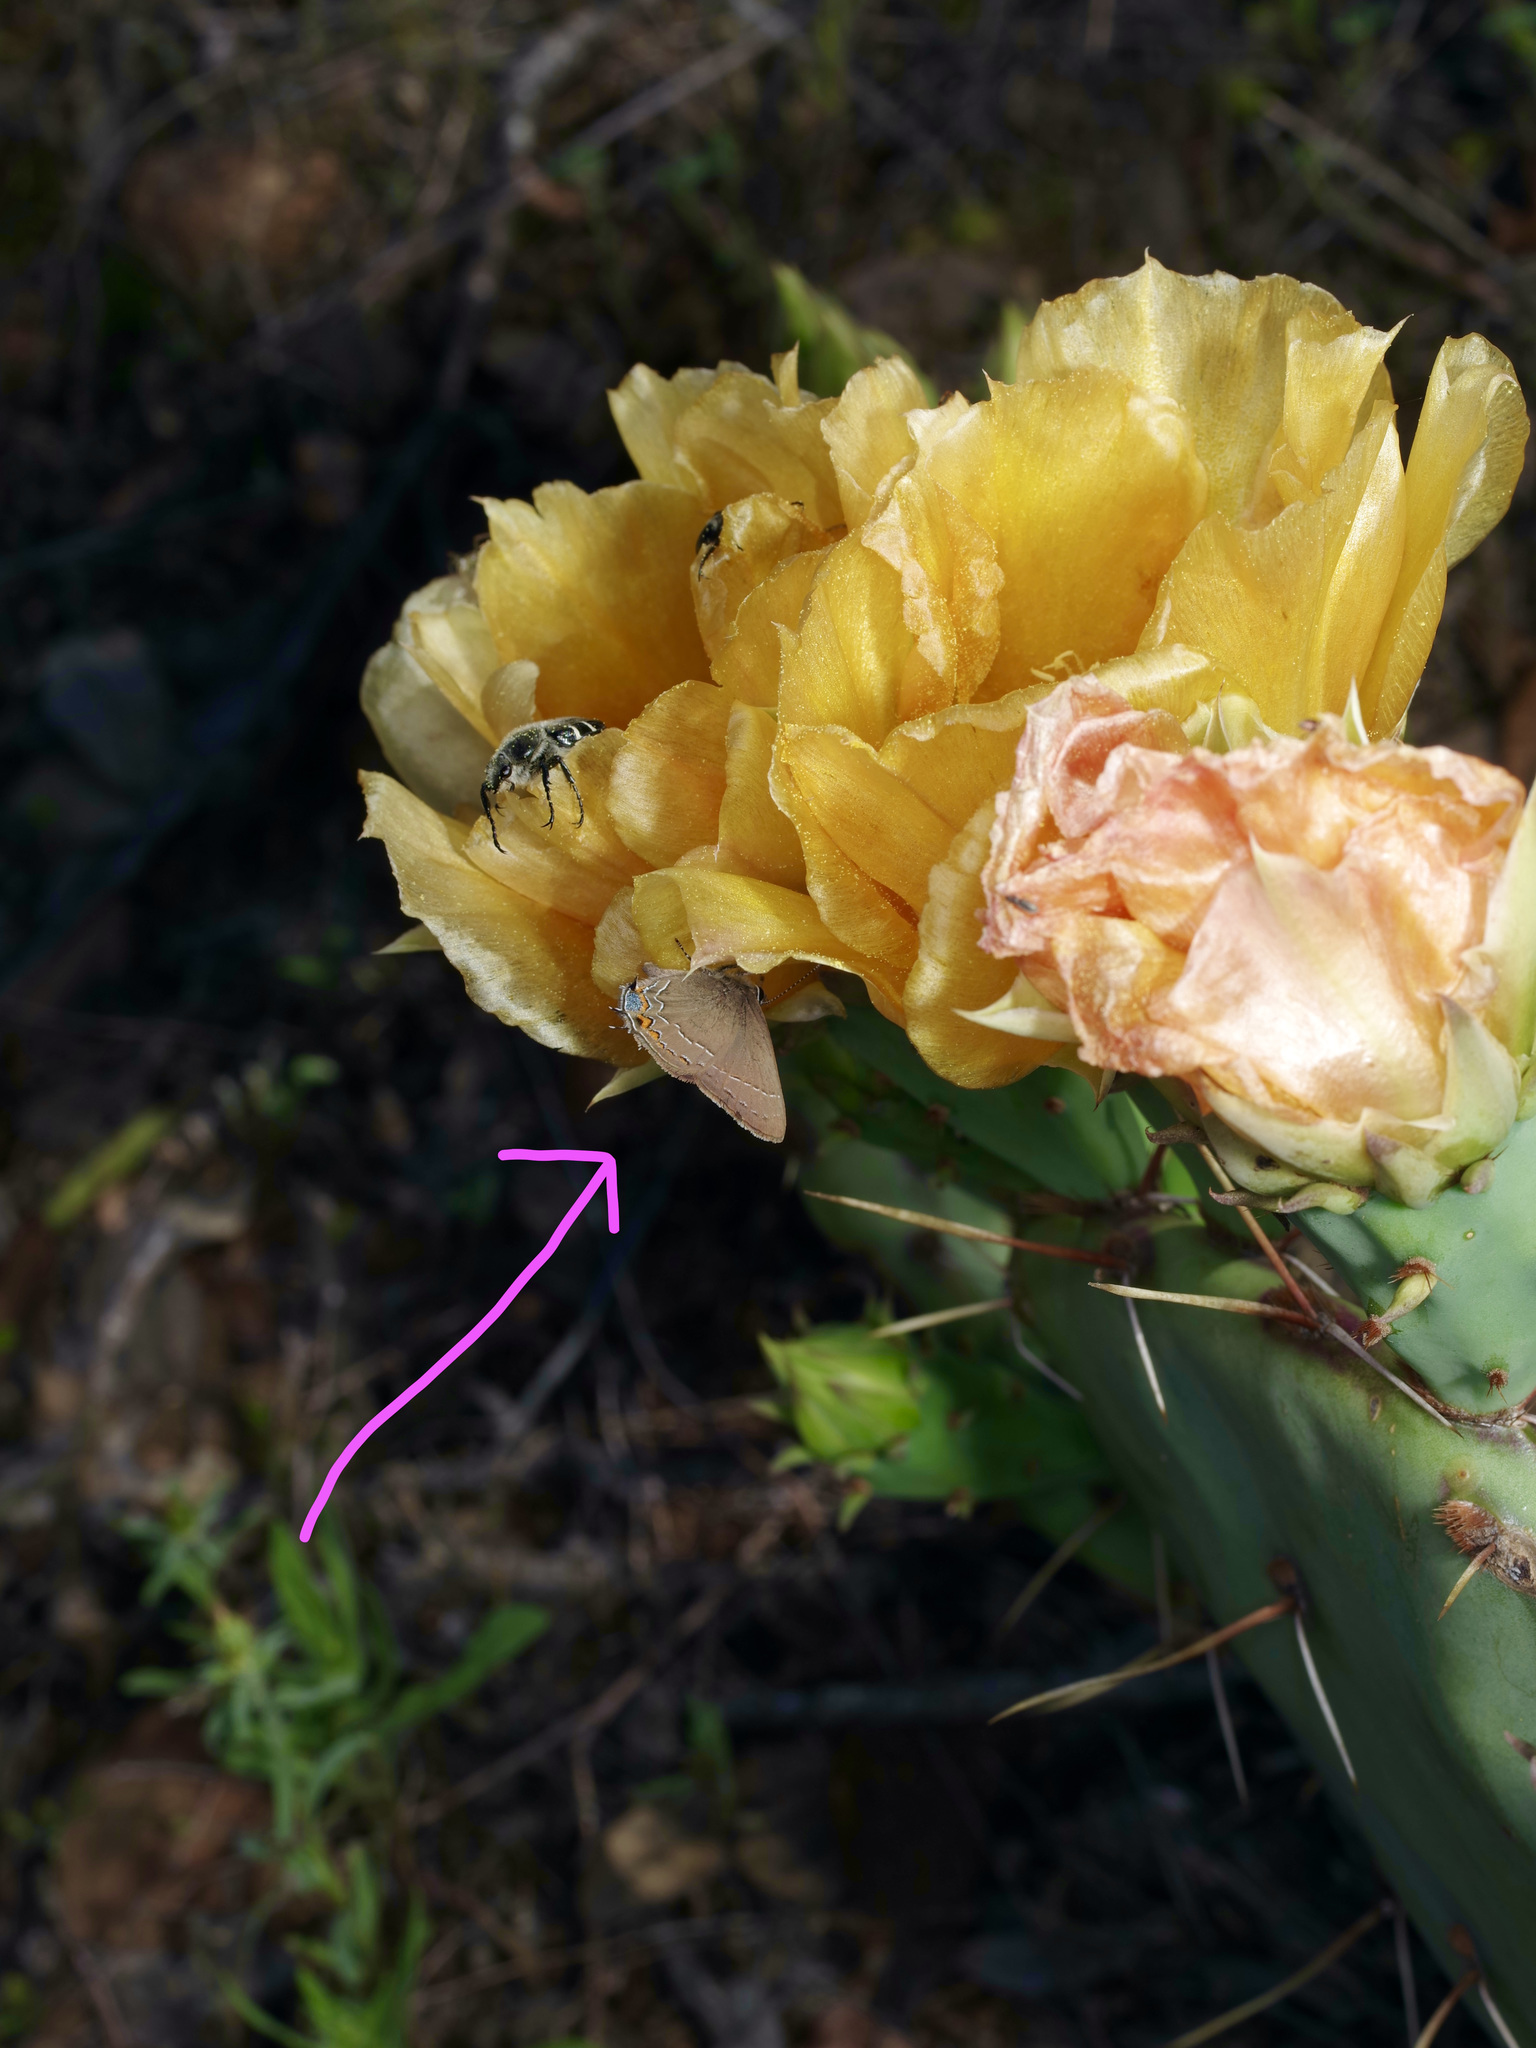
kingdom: Animalia
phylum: Arthropoda
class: Insecta
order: Lepidoptera
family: Lycaenidae
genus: Fixsenia
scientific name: Fixsenia favonius
